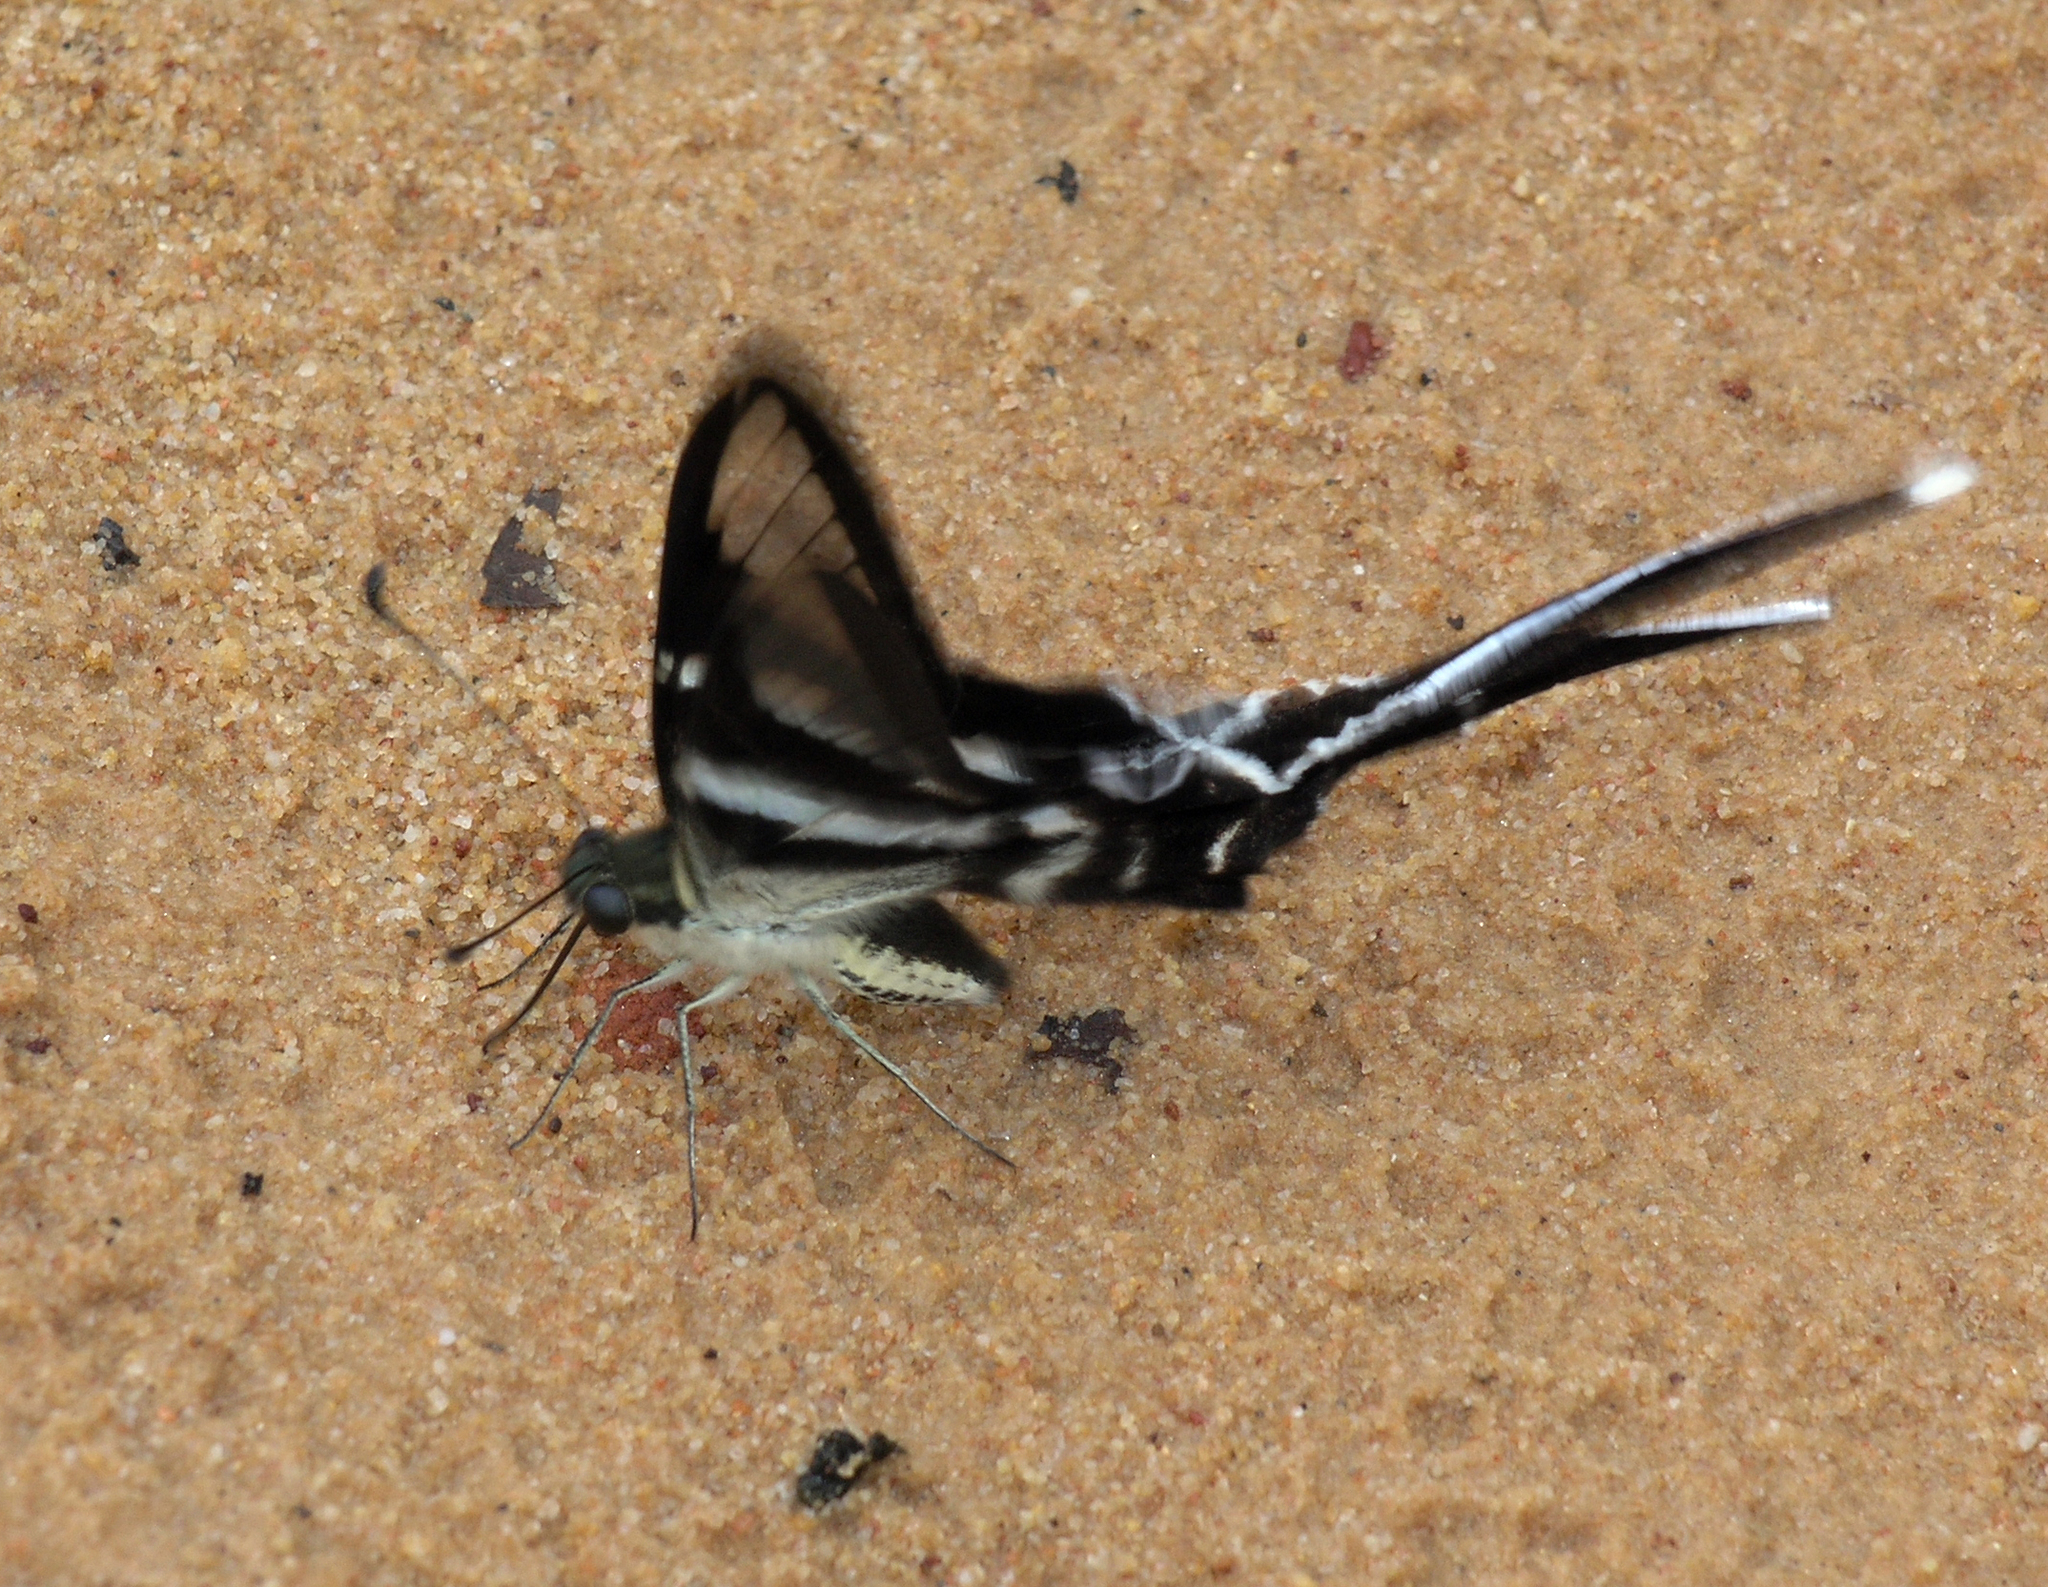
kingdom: Animalia
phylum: Arthropoda
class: Insecta
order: Lepidoptera
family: Papilionidae
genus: Lamproptera
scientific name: Lamproptera curius
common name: White dragontail
